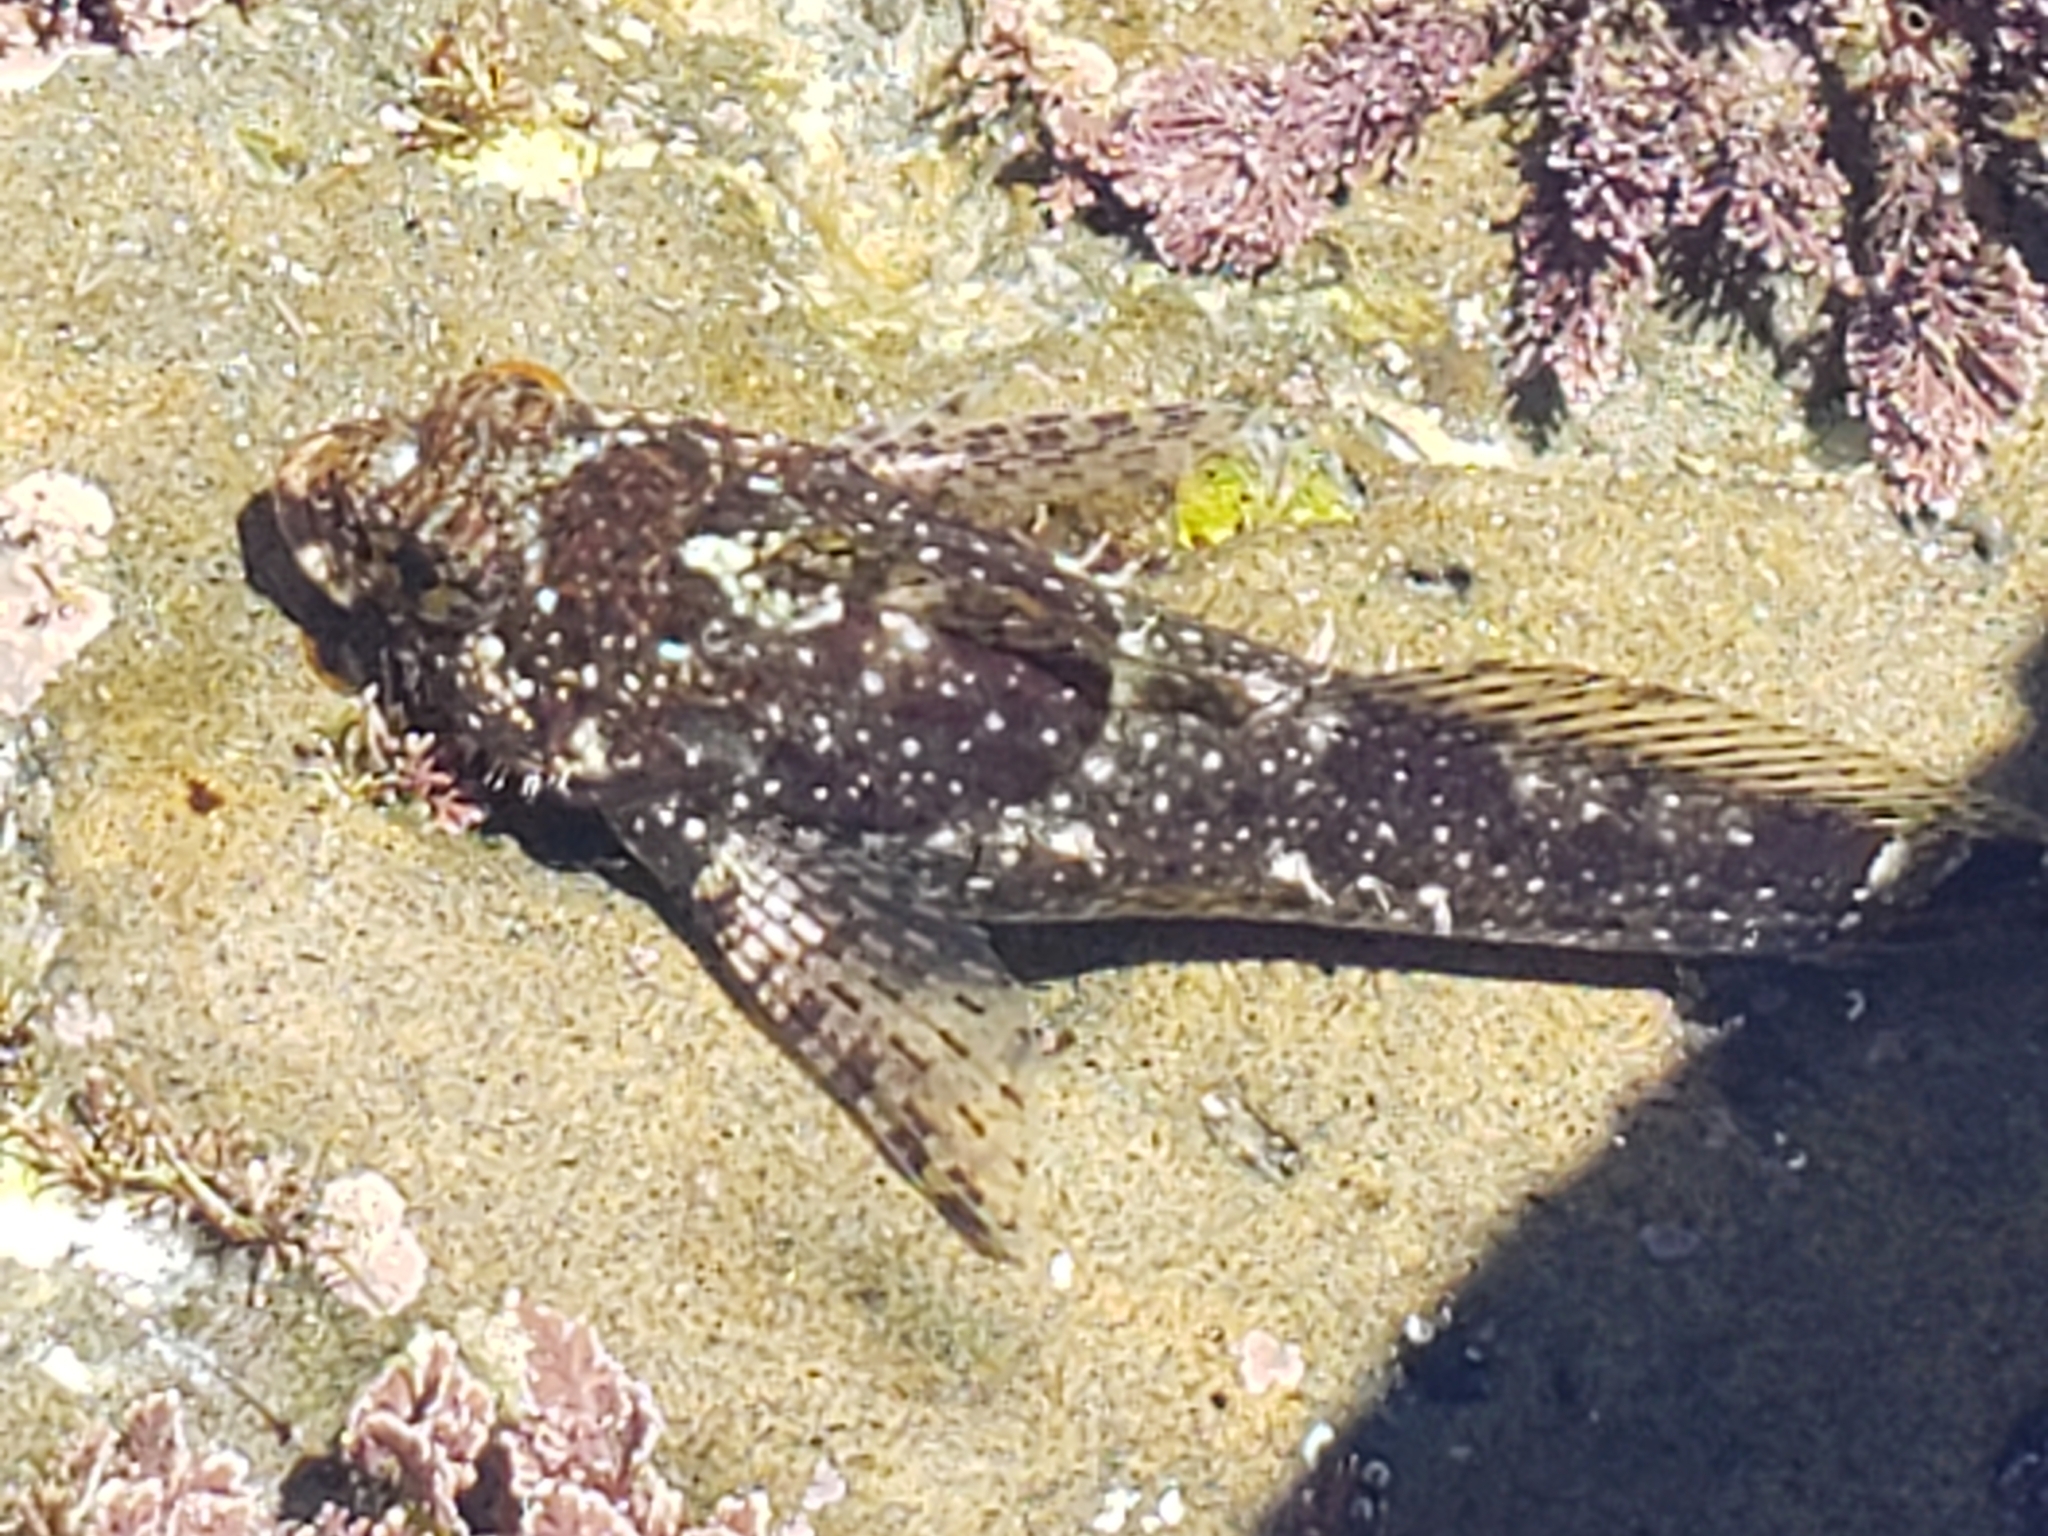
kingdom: Animalia
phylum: Chordata
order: Scorpaeniformes
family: Cottidae
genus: Clinocottus
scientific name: Clinocottus analis
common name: Woolly sculpin
